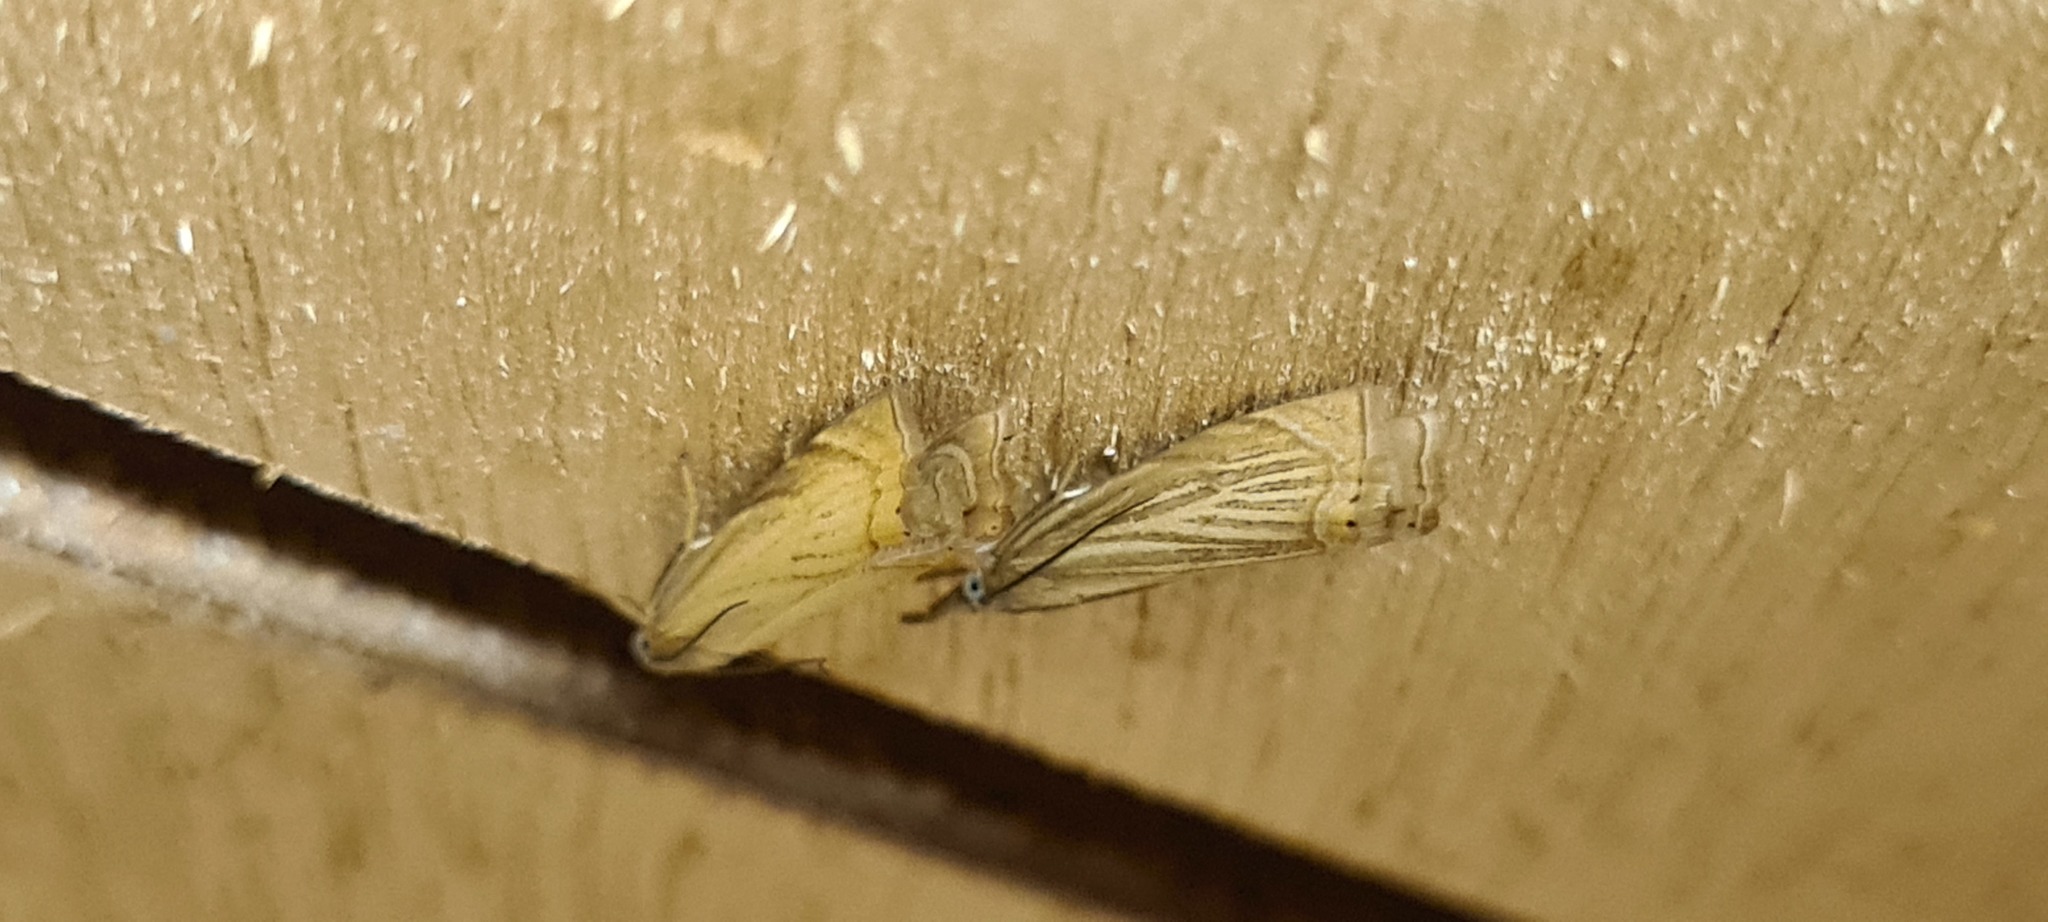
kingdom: Animalia
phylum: Arthropoda
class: Insecta
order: Lepidoptera
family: Crambidae
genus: Chrysoteuchia
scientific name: Chrysoteuchia culmella
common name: Garden grass-veneer
